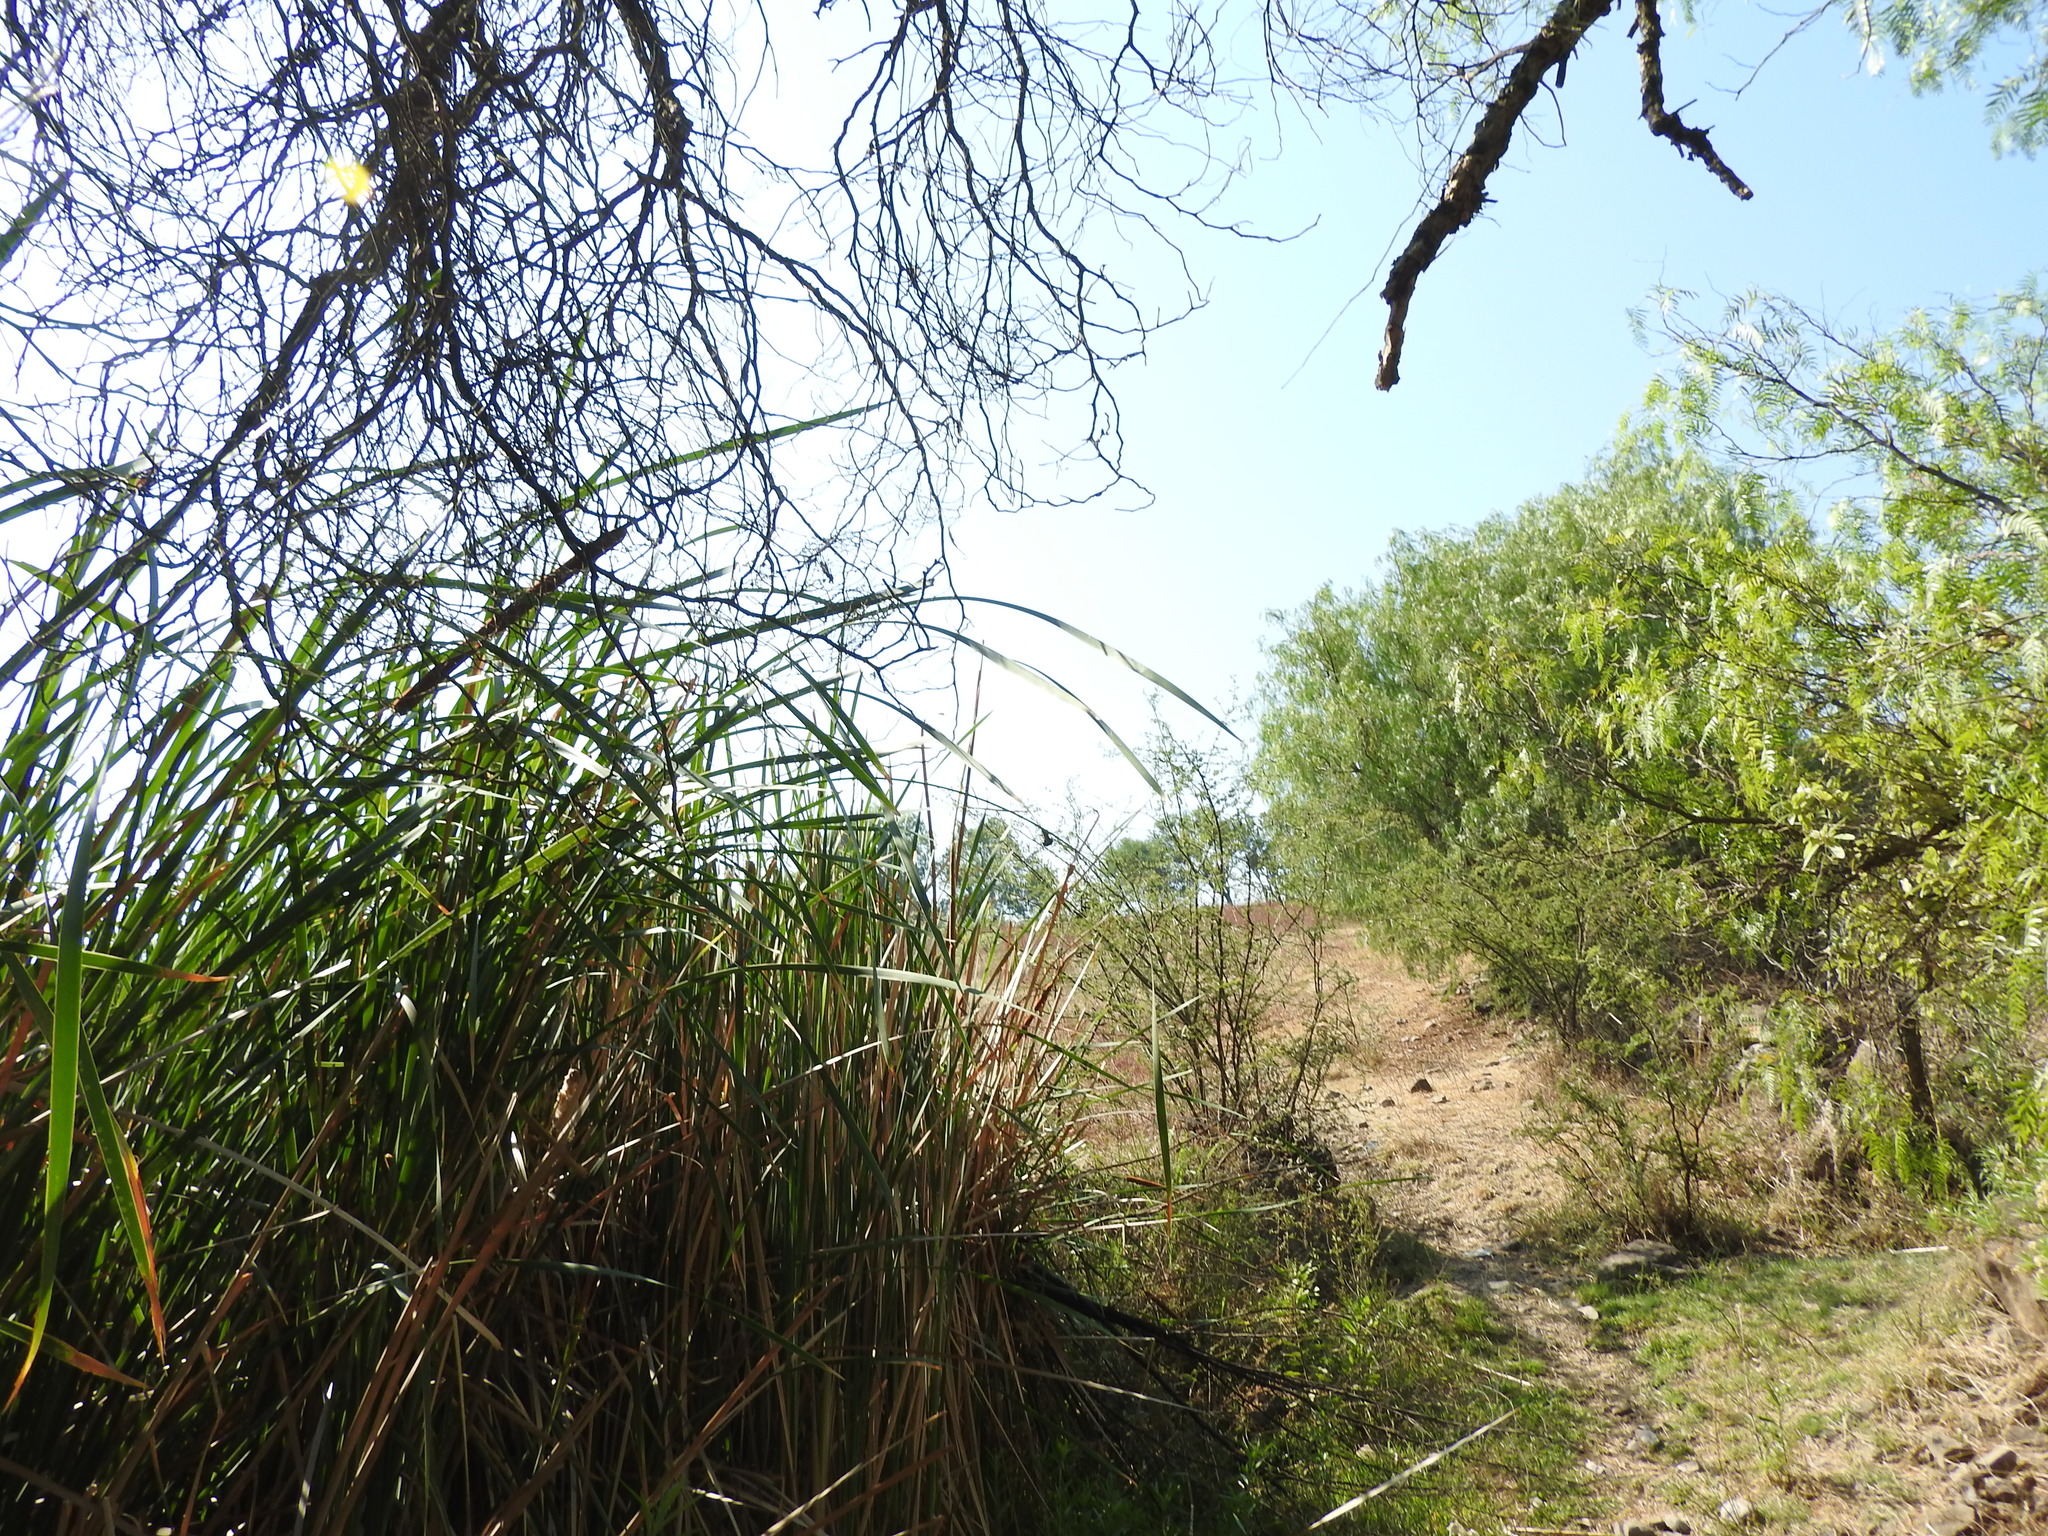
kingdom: Plantae
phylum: Tracheophyta
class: Liliopsida
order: Poales
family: Typhaceae
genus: Typha
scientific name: Typha domingensis
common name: Southern cattail
